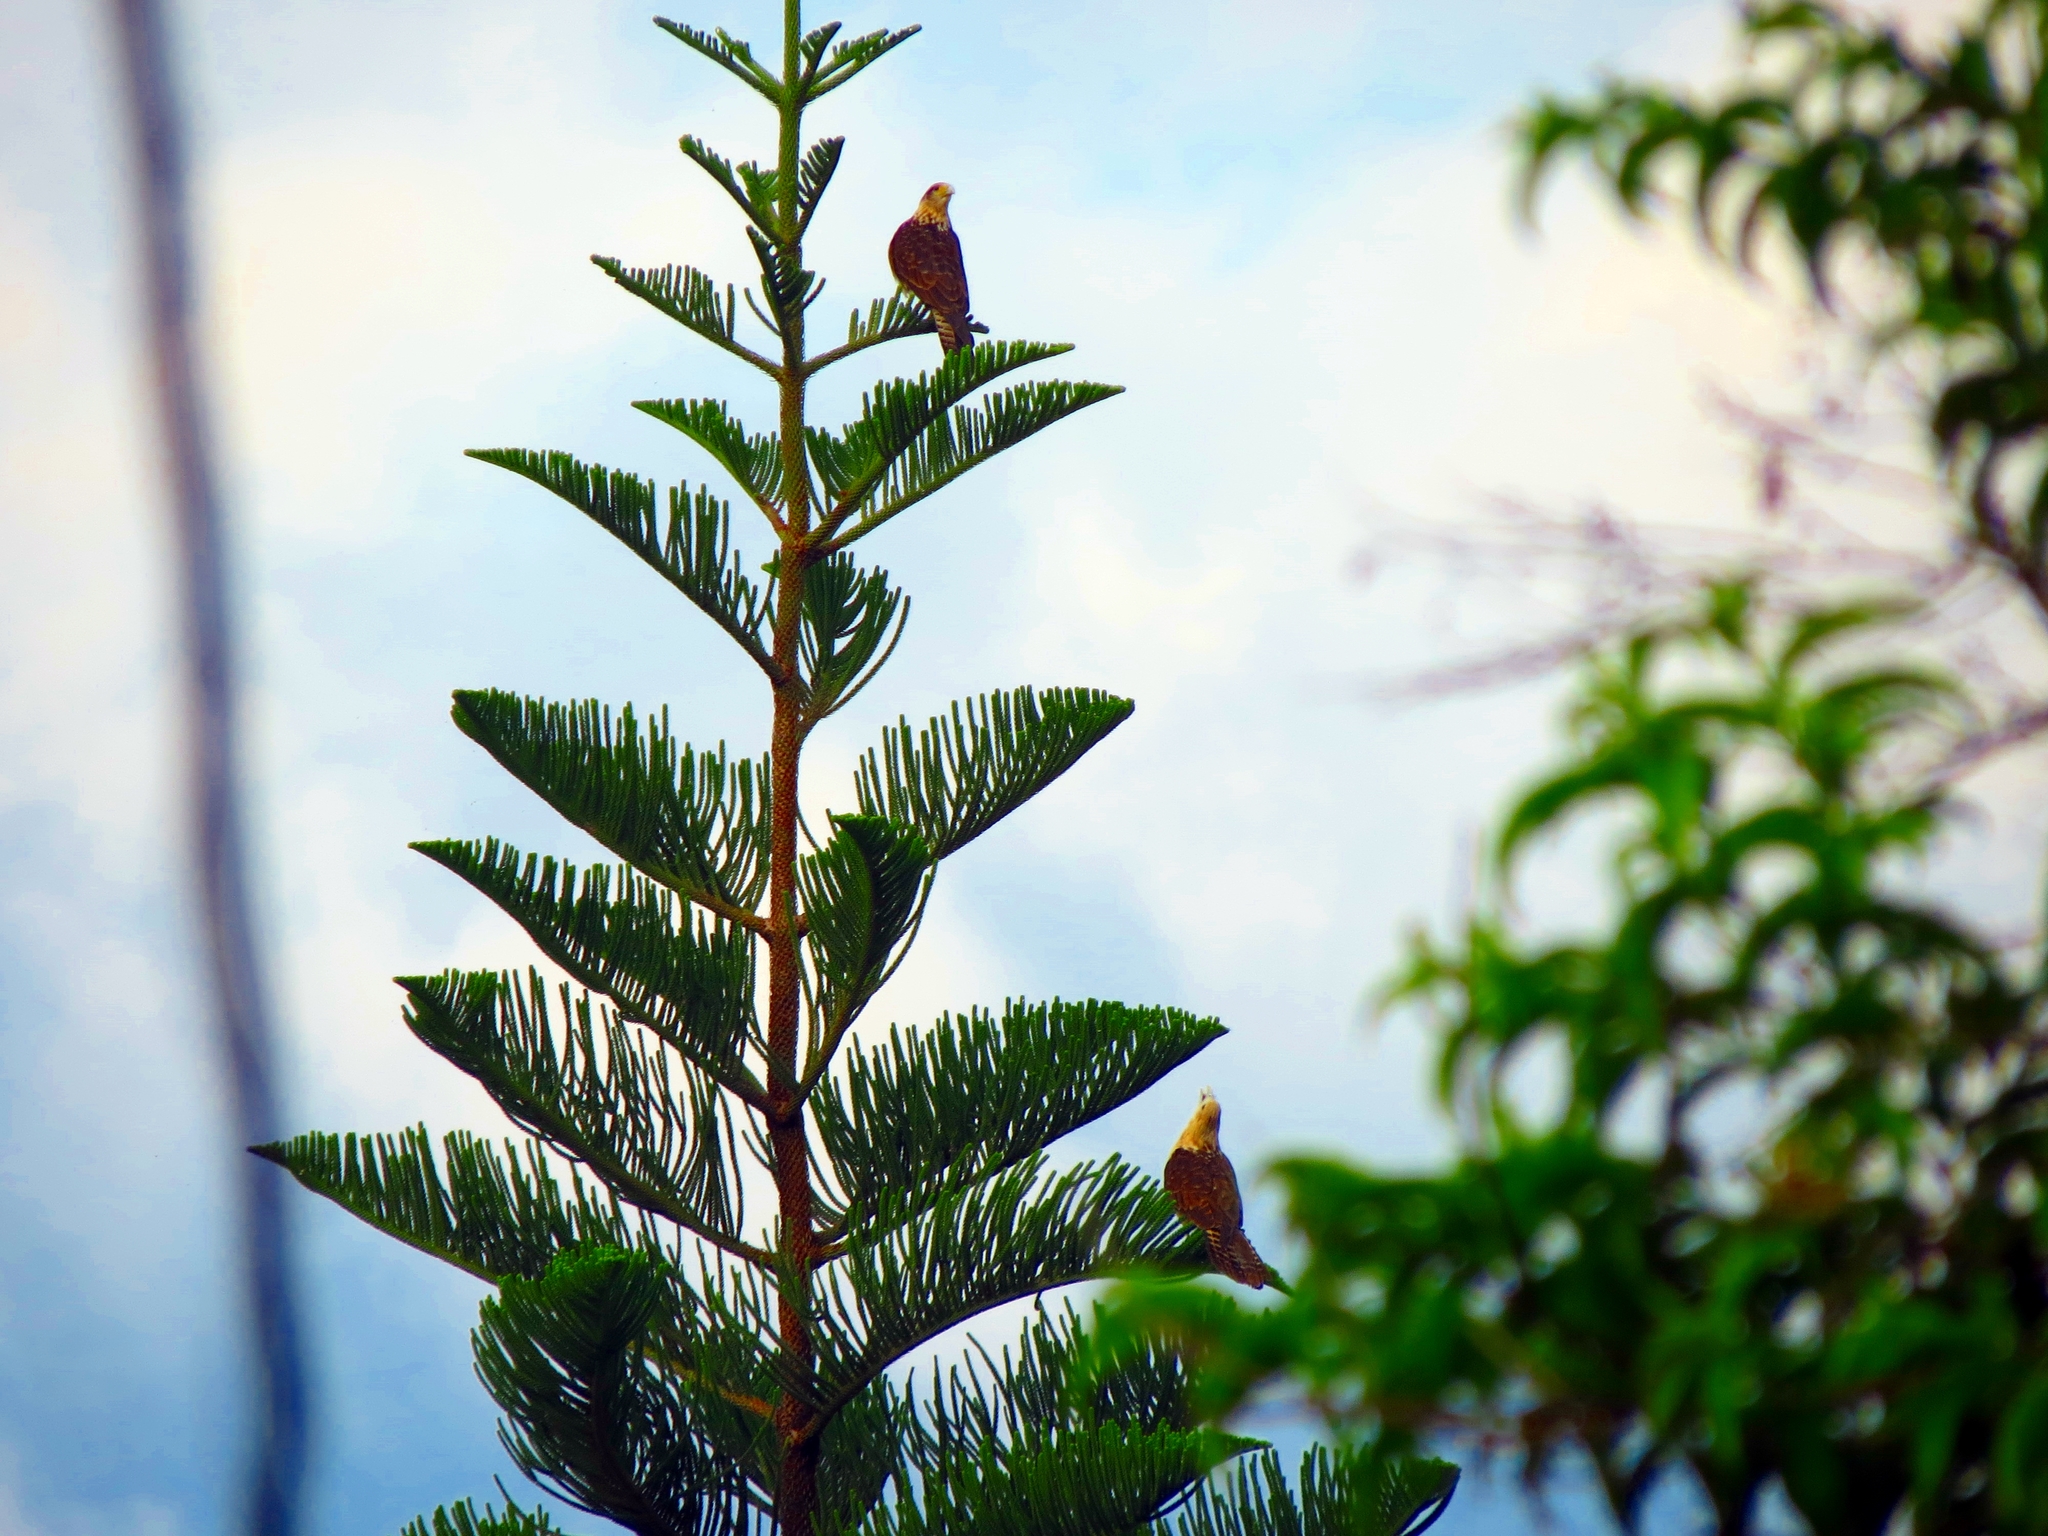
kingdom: Animalia
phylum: Chordata
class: Aves
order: Falconiformes
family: Falconidae
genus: Daptrius
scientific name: Daptrius
